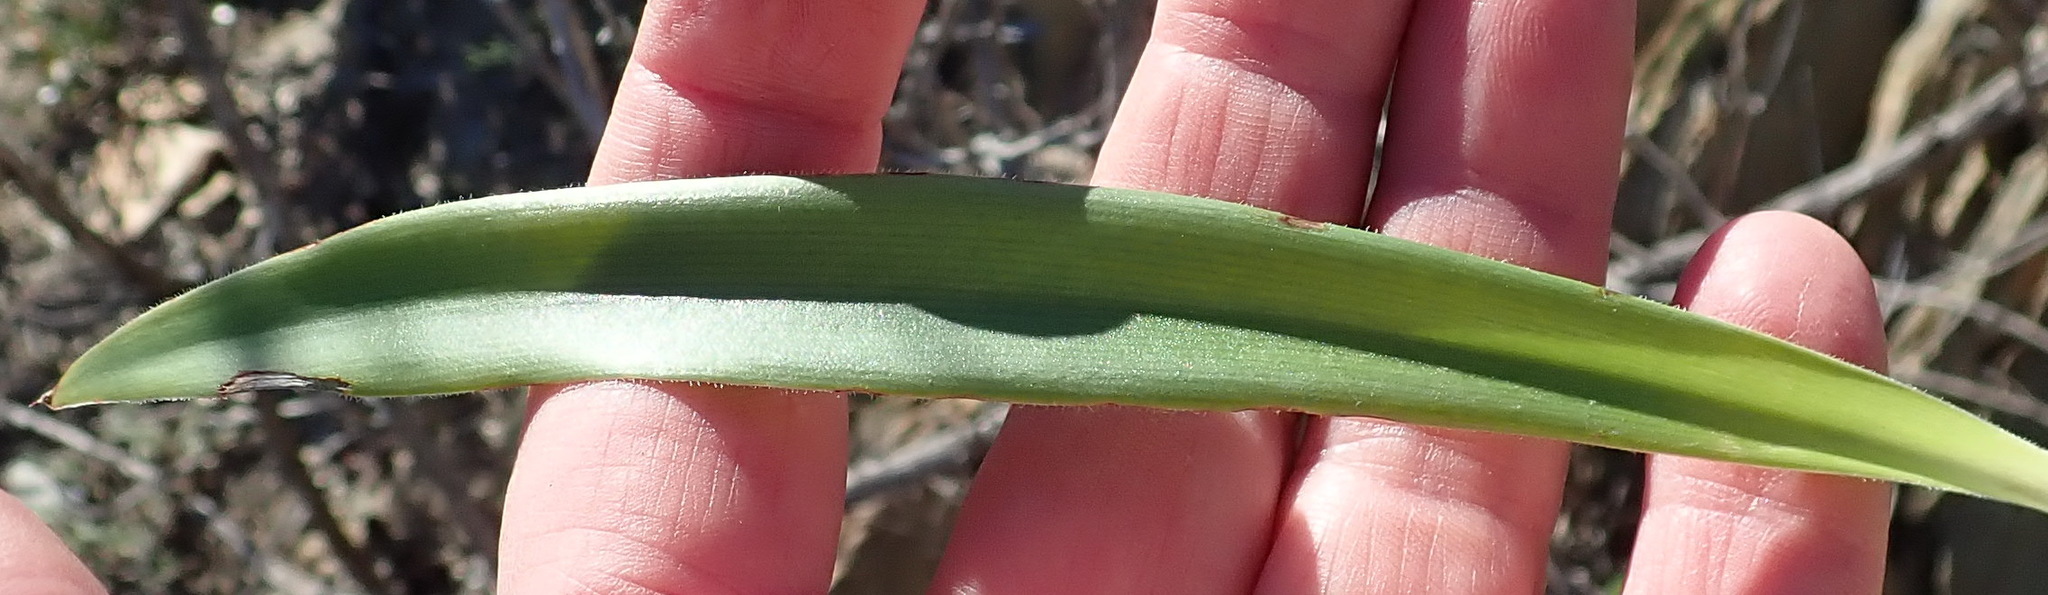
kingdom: Plantae
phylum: Tracheophyta
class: Liliopsida
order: Asparagales
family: Asparagaceae
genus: Chlorophytum
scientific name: Chlorophytum crispum
